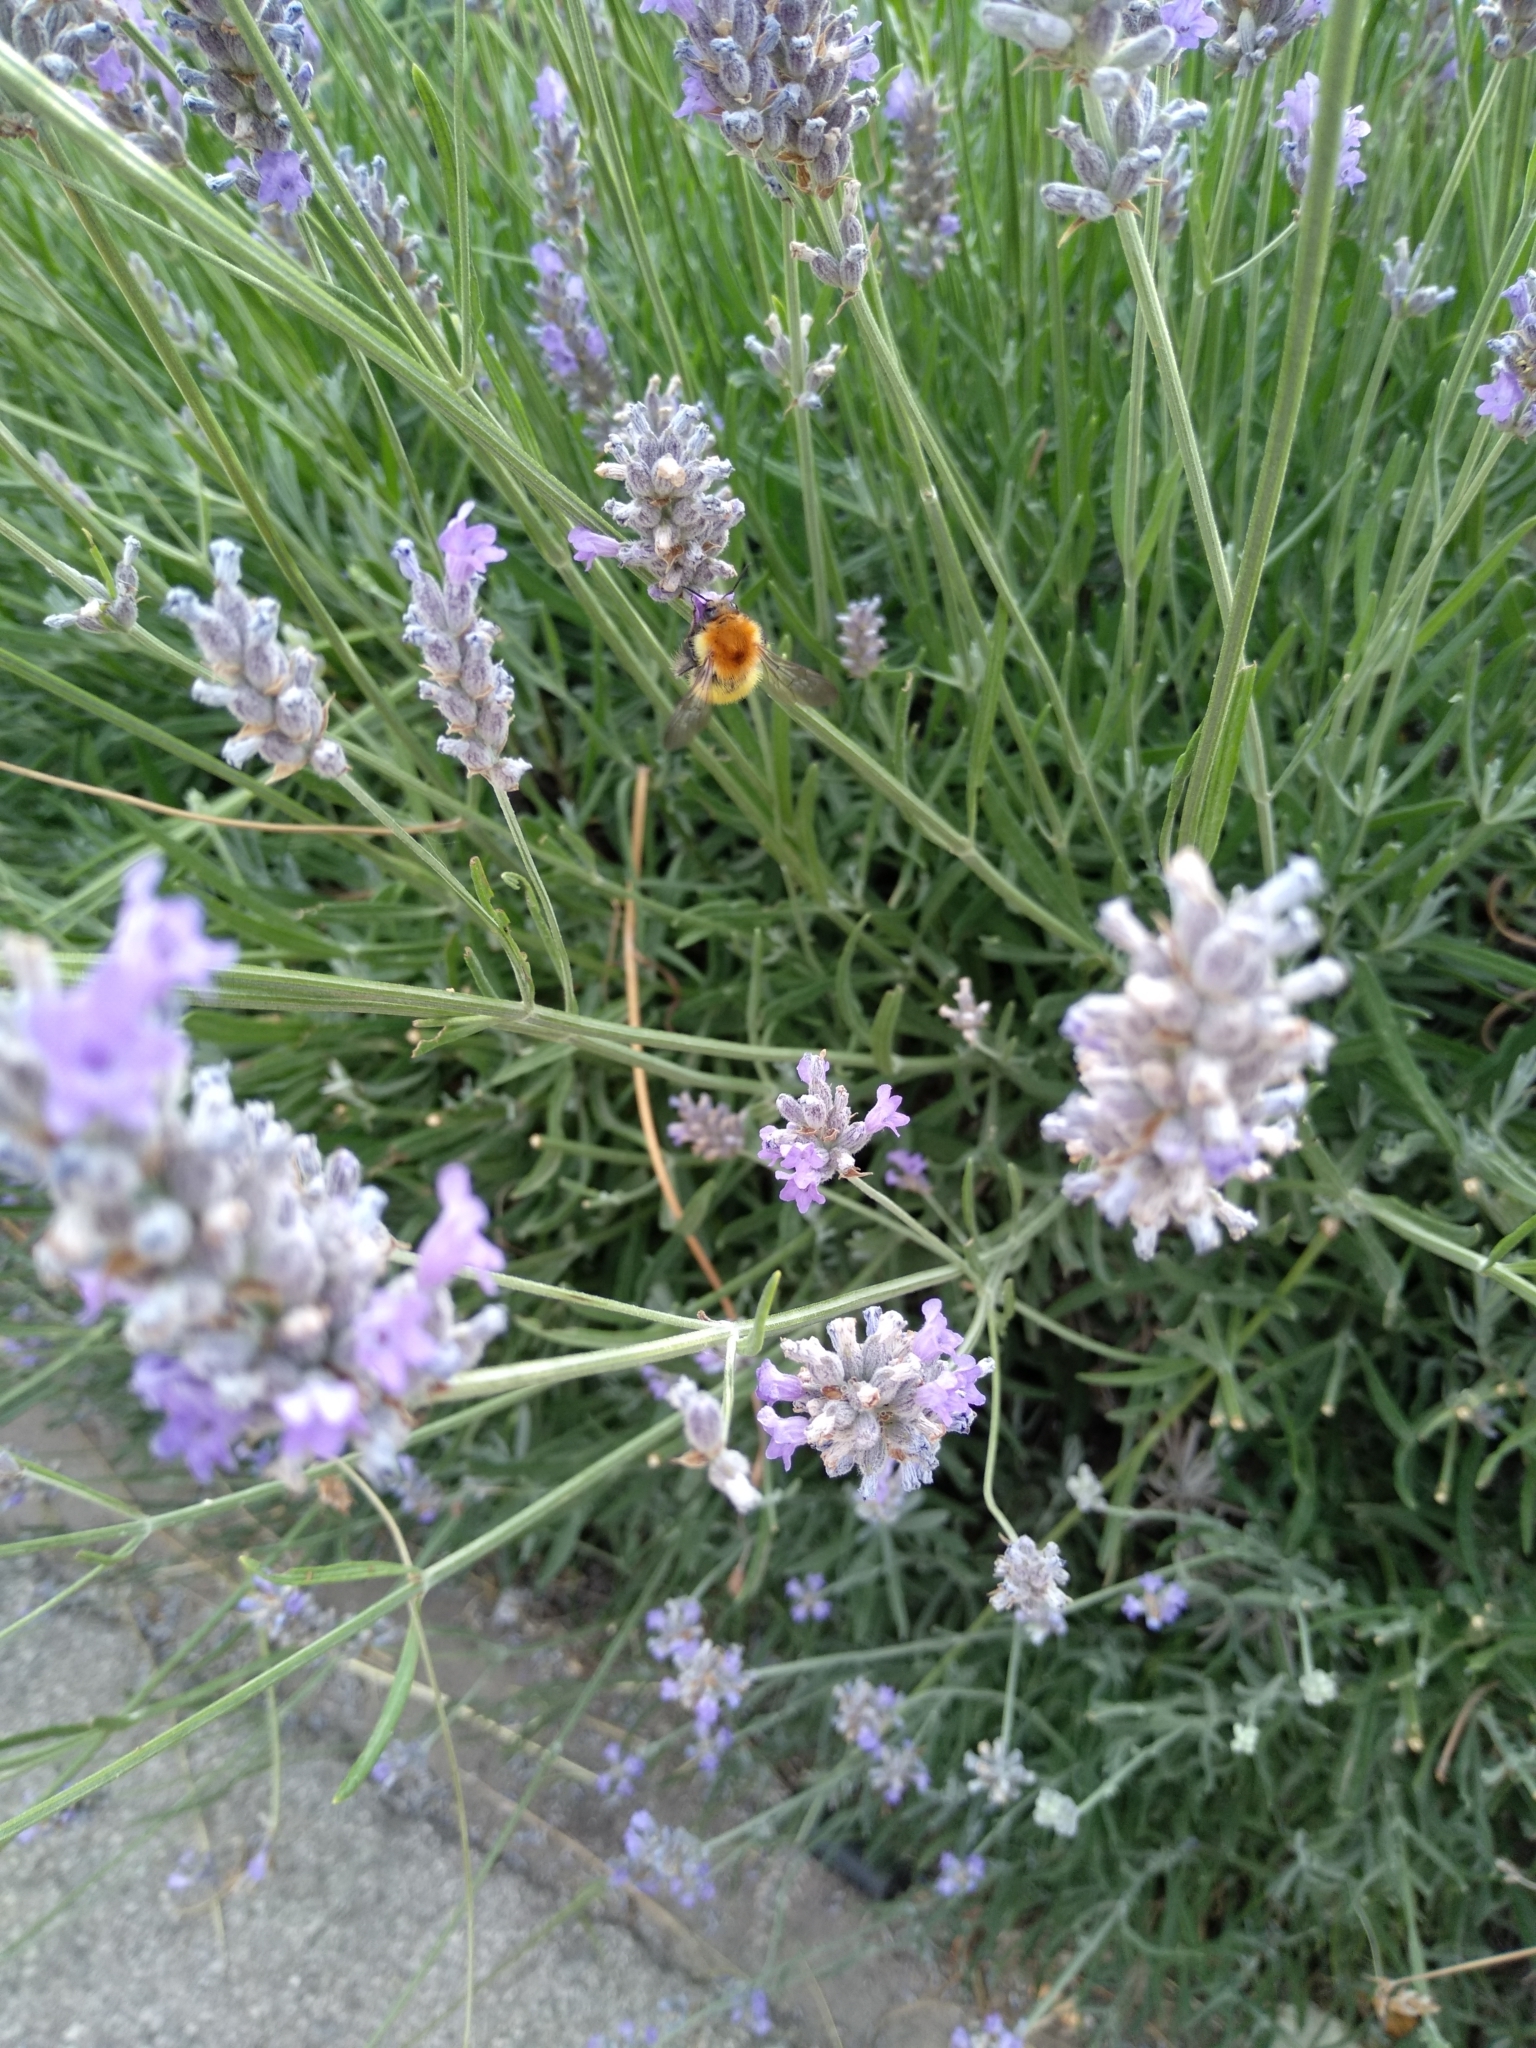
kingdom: Animalia
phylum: Arthropoda
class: Insecta
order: Hymenoptera
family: Apidae
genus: Bombus
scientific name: Bombus pascuorum
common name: Common carder bee
